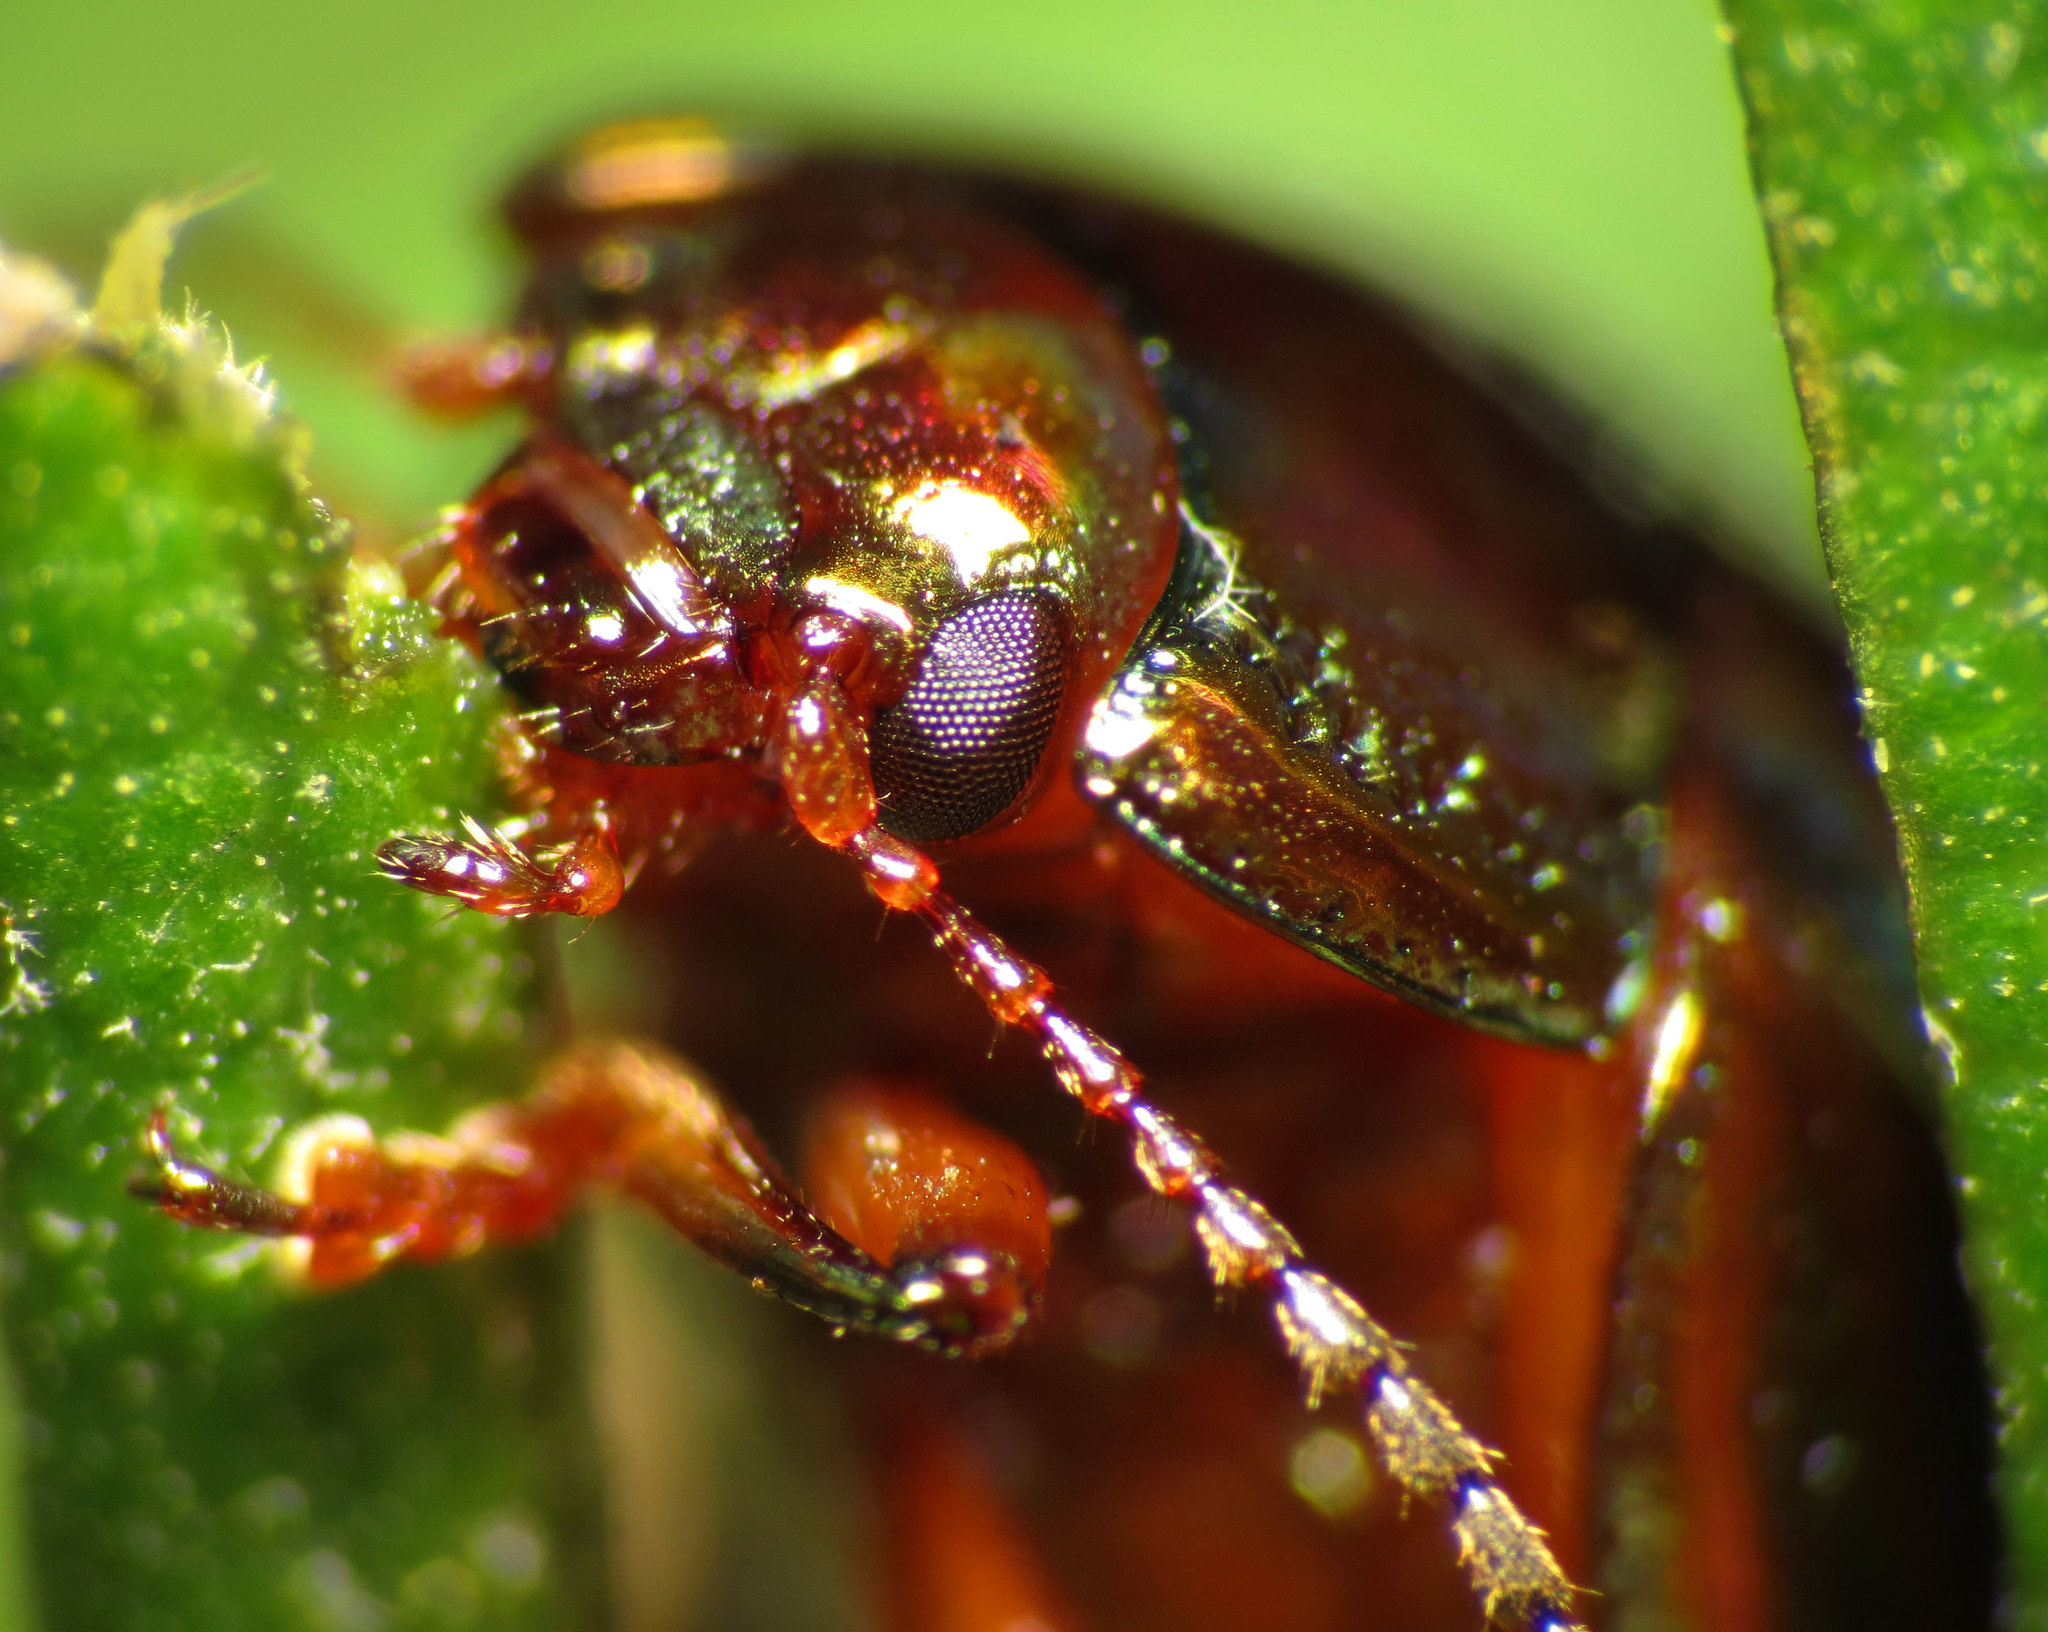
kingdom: Animalia
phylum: Arthropoda
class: Insecta
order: Coleoptera
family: Chrysomelidae
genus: Chrysolina
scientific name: Chrysolina americana
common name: Rosemary beetle
